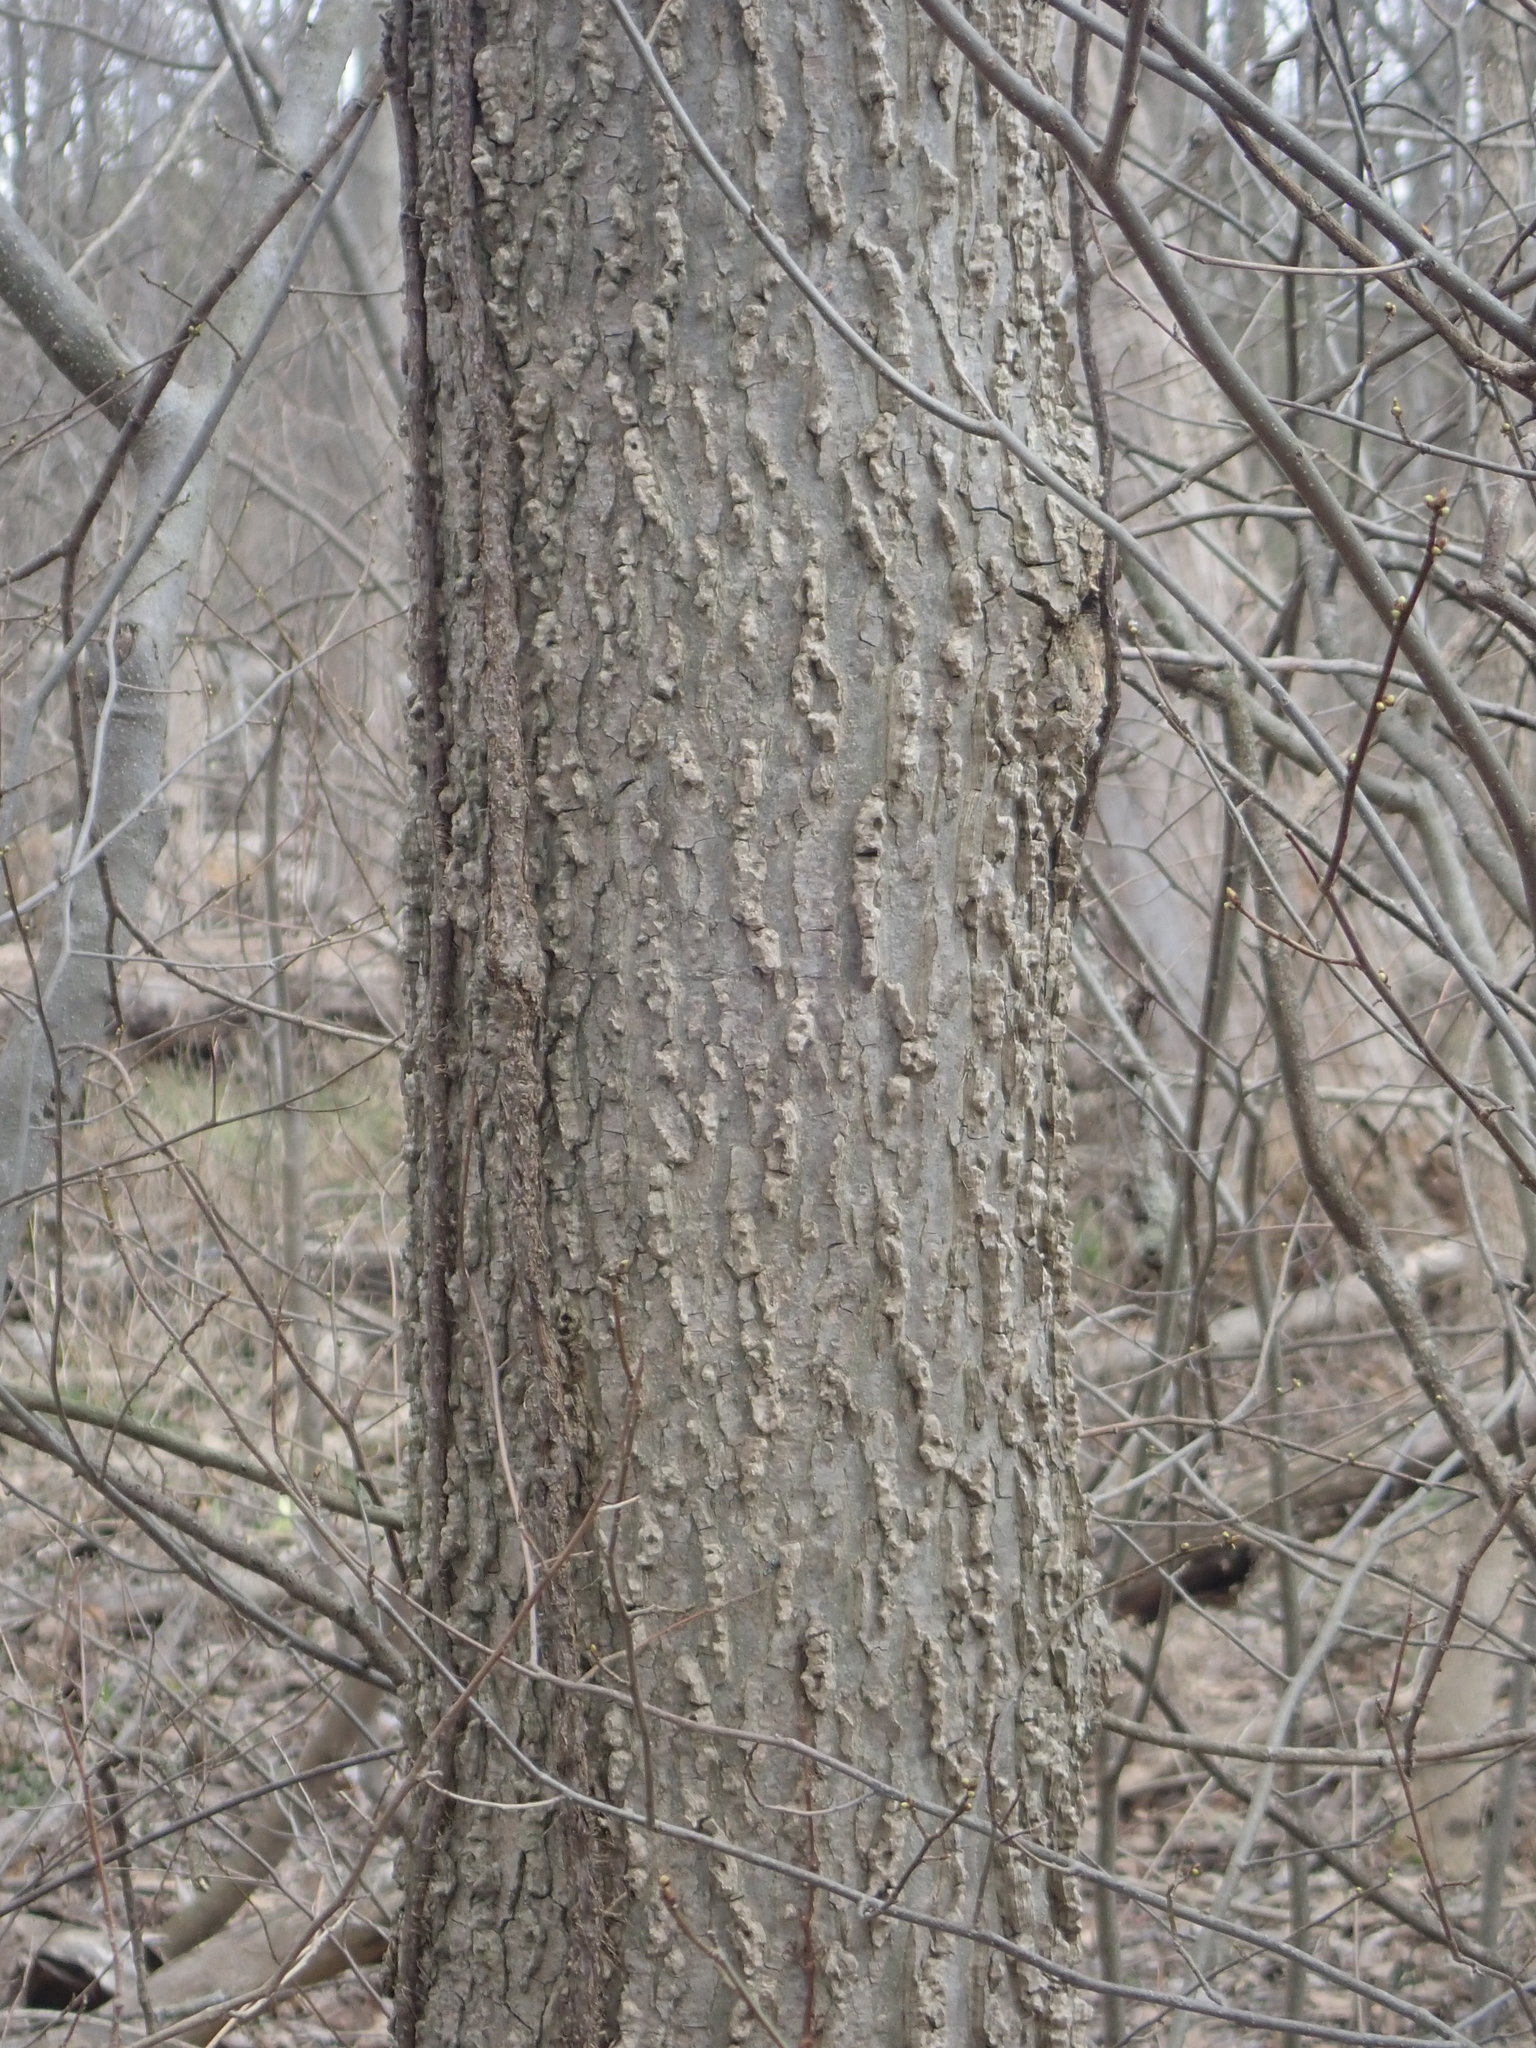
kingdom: Plantae
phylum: Tracheophyta
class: Magnoliopsida
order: Rosales
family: Cannabaceae
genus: Celtis
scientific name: Celtis occidentalis
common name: Common hackberry
